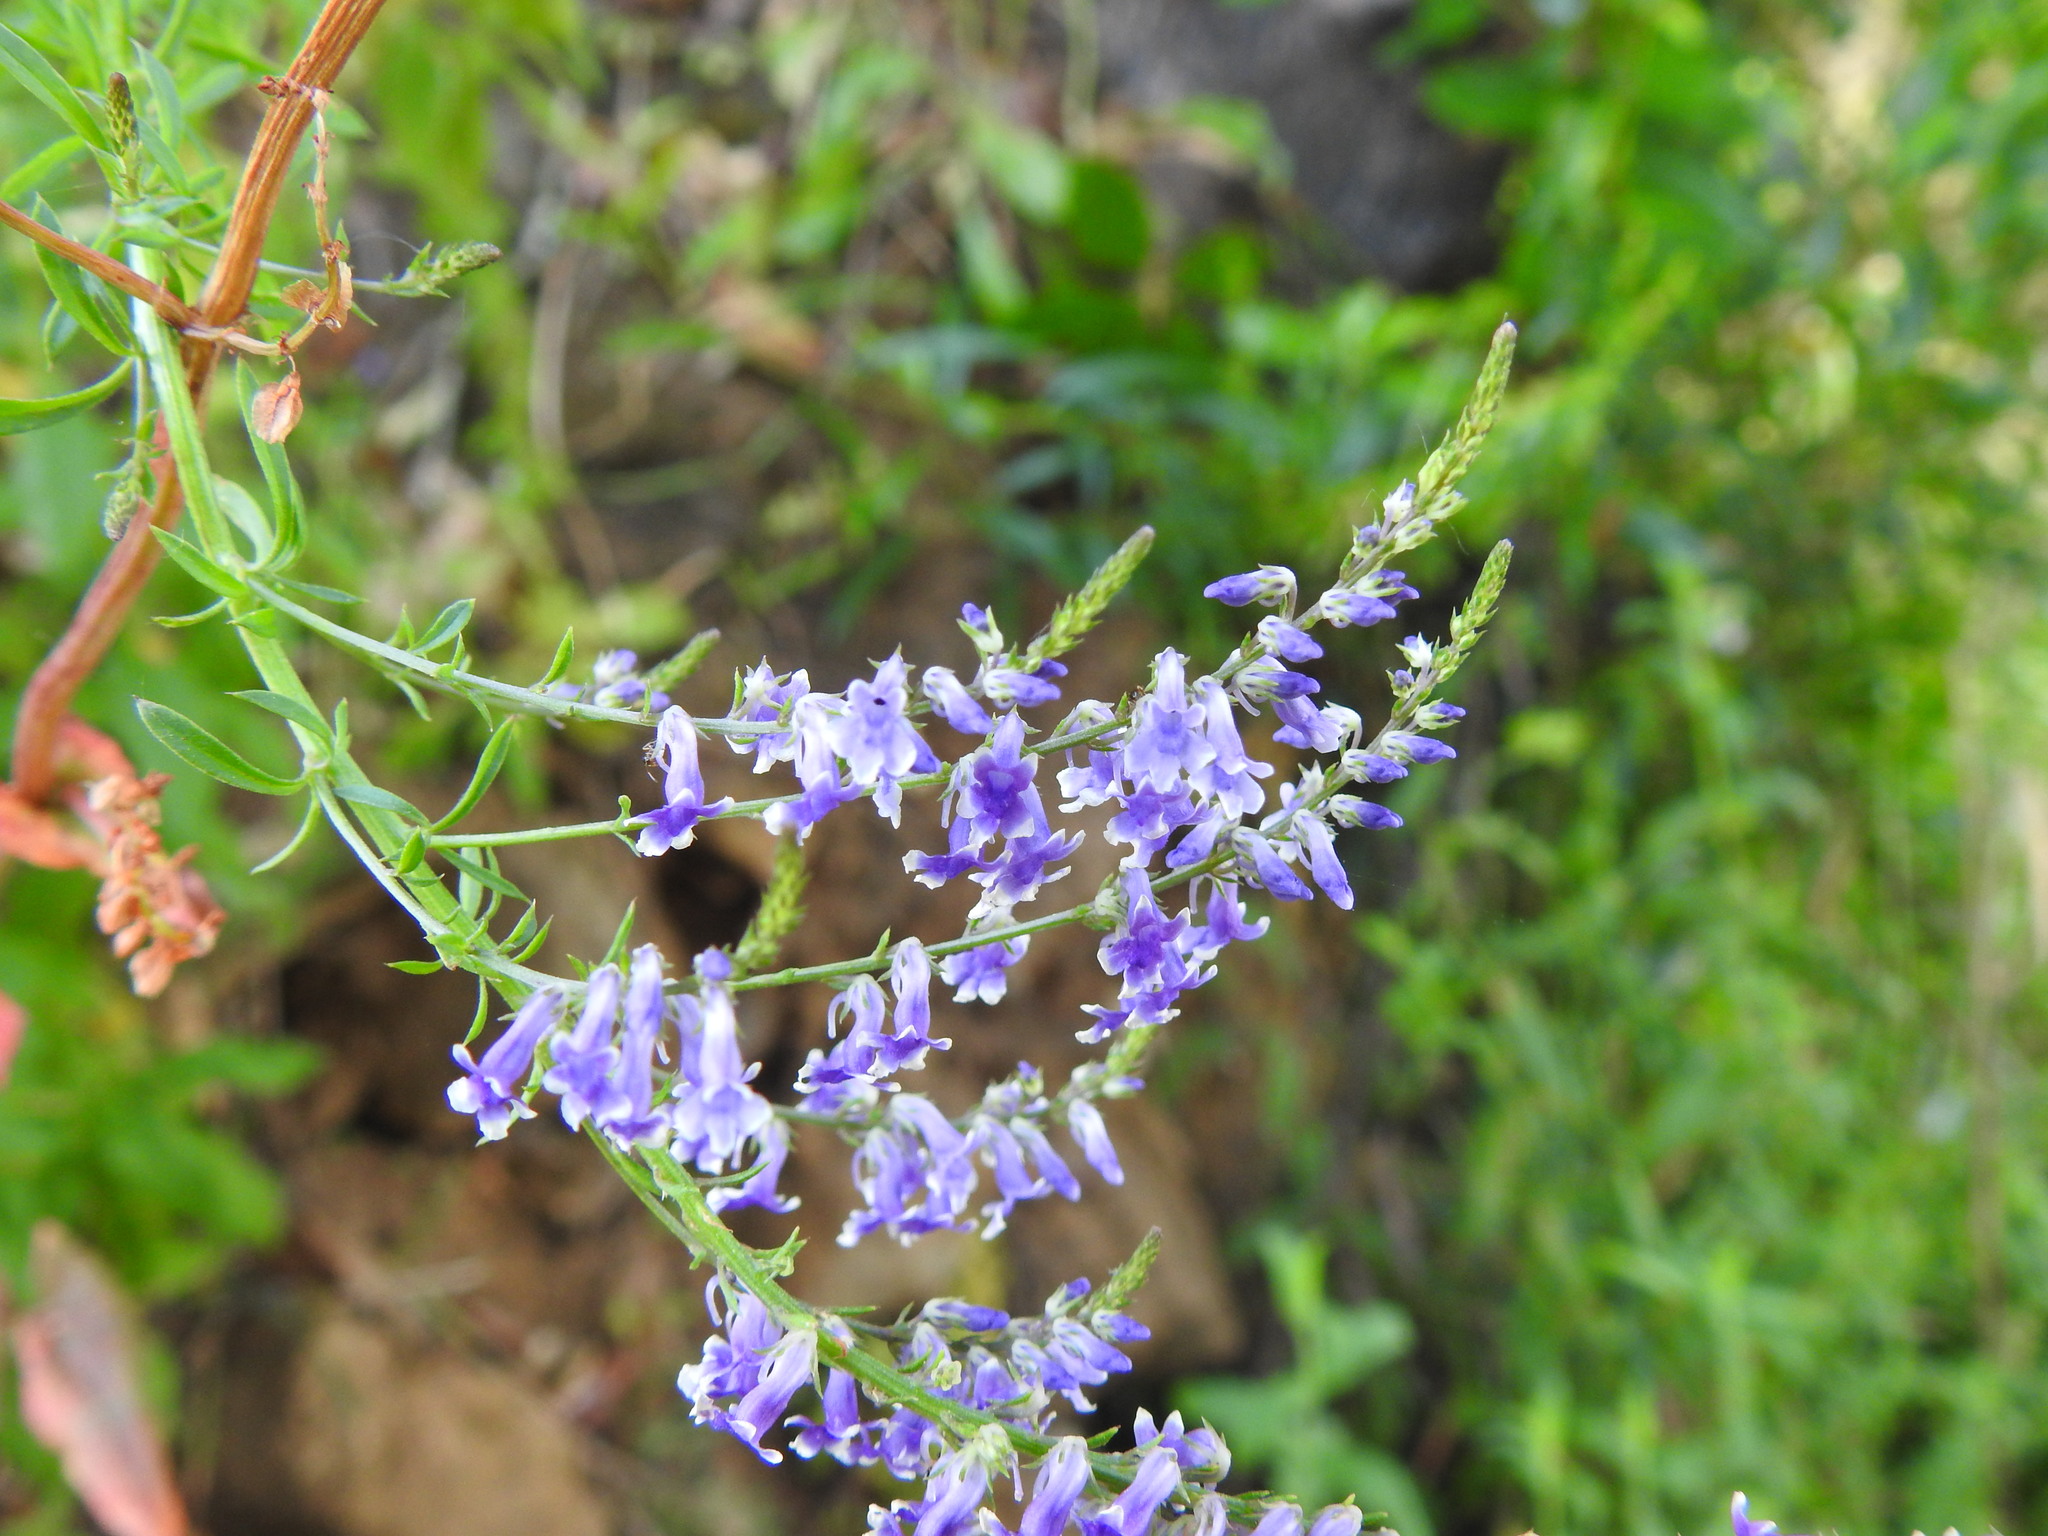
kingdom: Plantae
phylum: Tracheophyta
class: Magnoliopsida
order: Lamiales
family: Plantaginaceae
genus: Anarrhinum
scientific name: Anarrhinum bellidifolium
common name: Daisy-leaved toadflax
